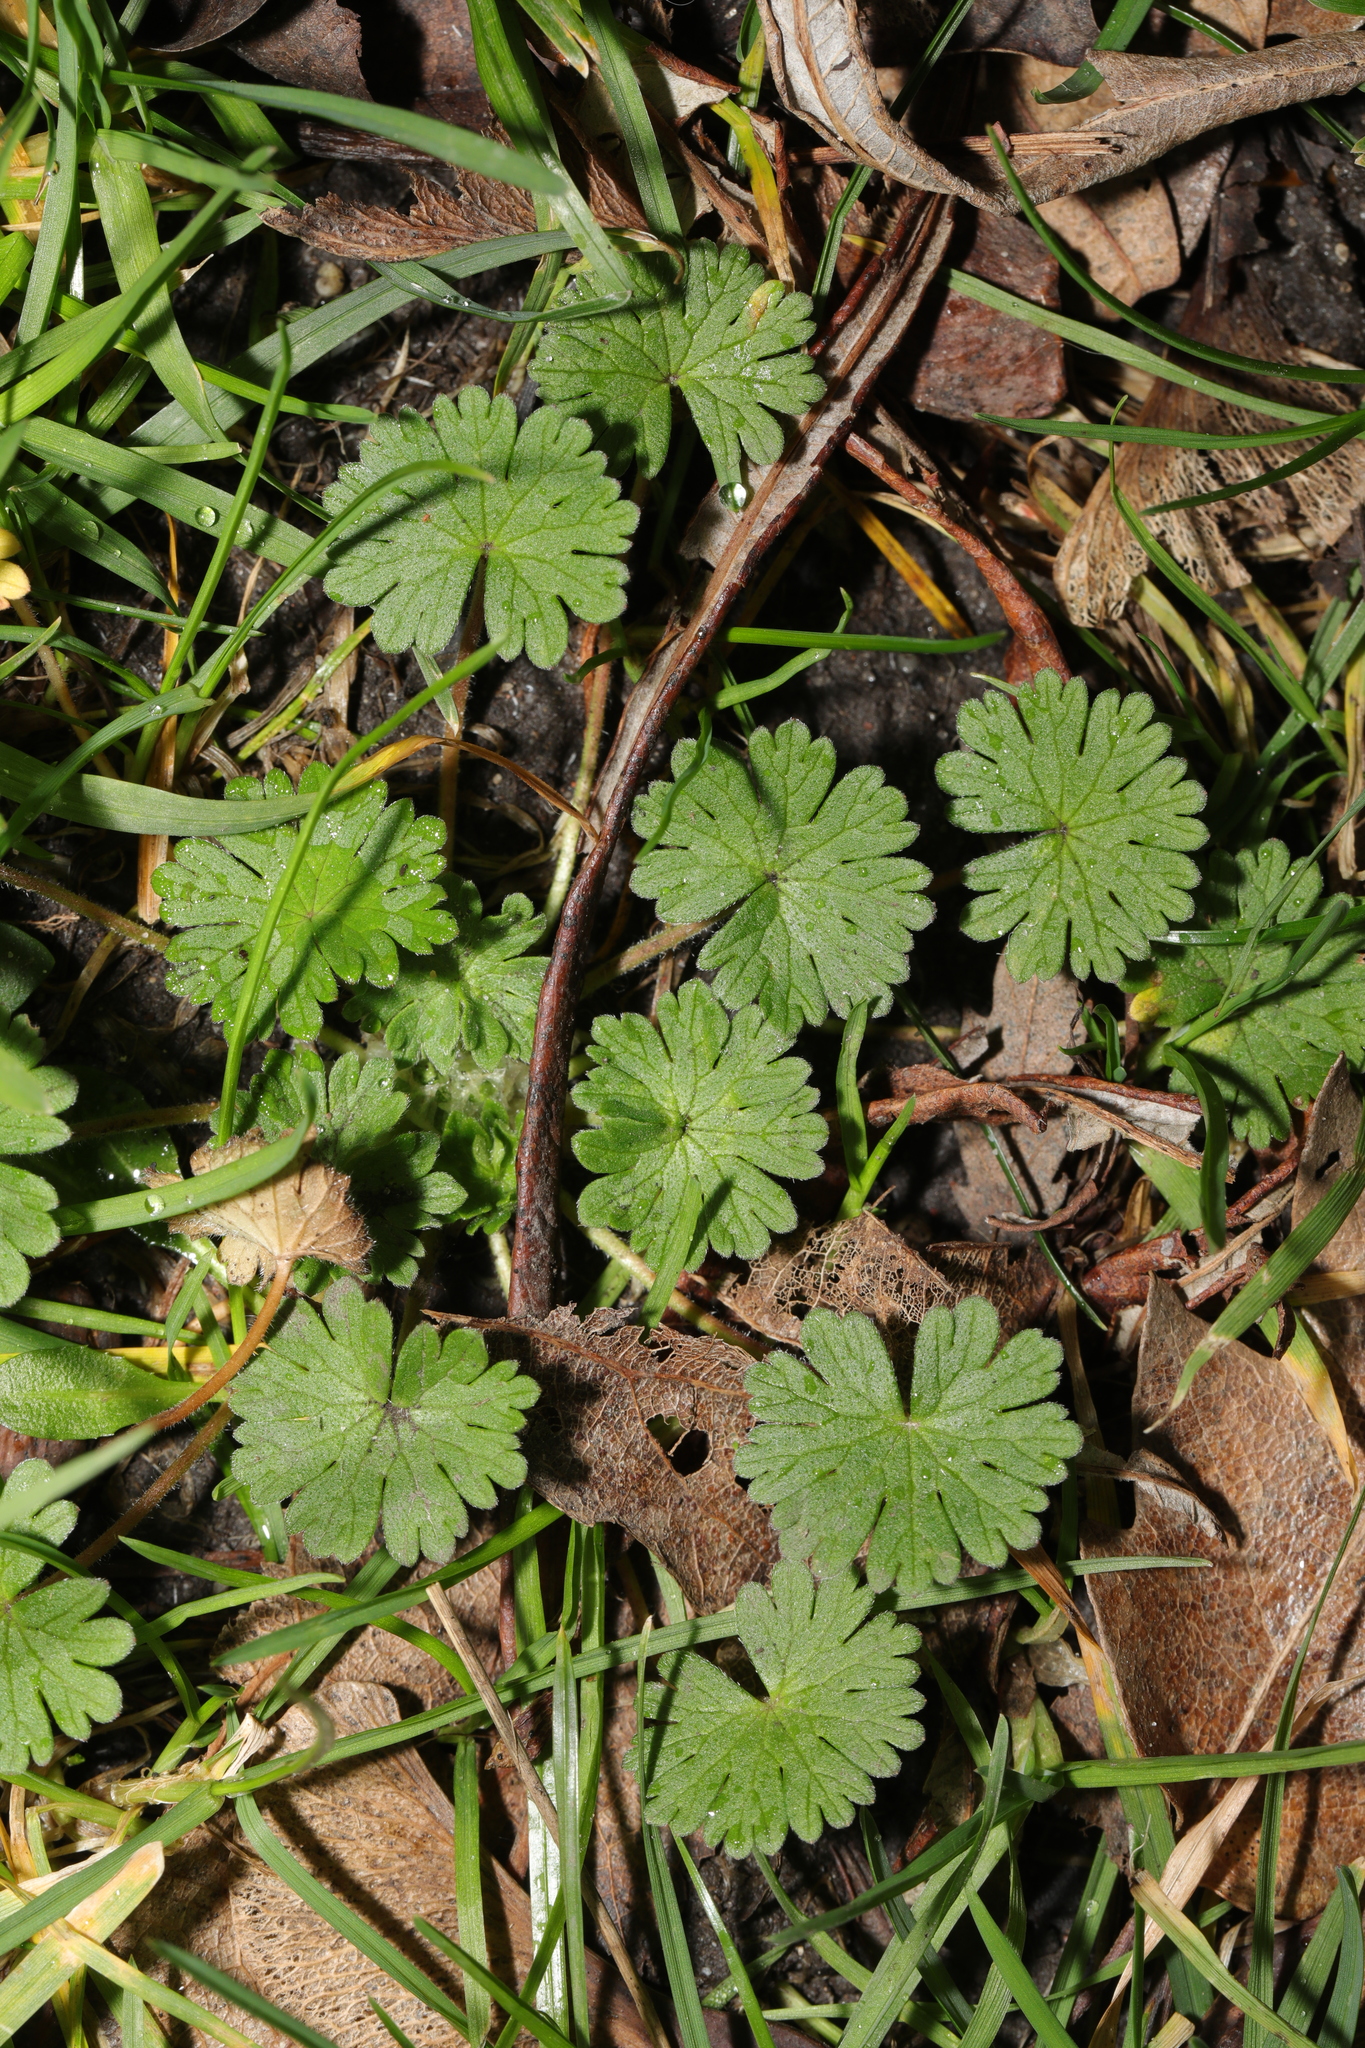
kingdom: Plantae
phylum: Tracheophyta
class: Magnoliopsida
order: Geraniales
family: Geraniaceae
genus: Geranium
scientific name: Geranium molle
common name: Dove's-foot crane's-bill
